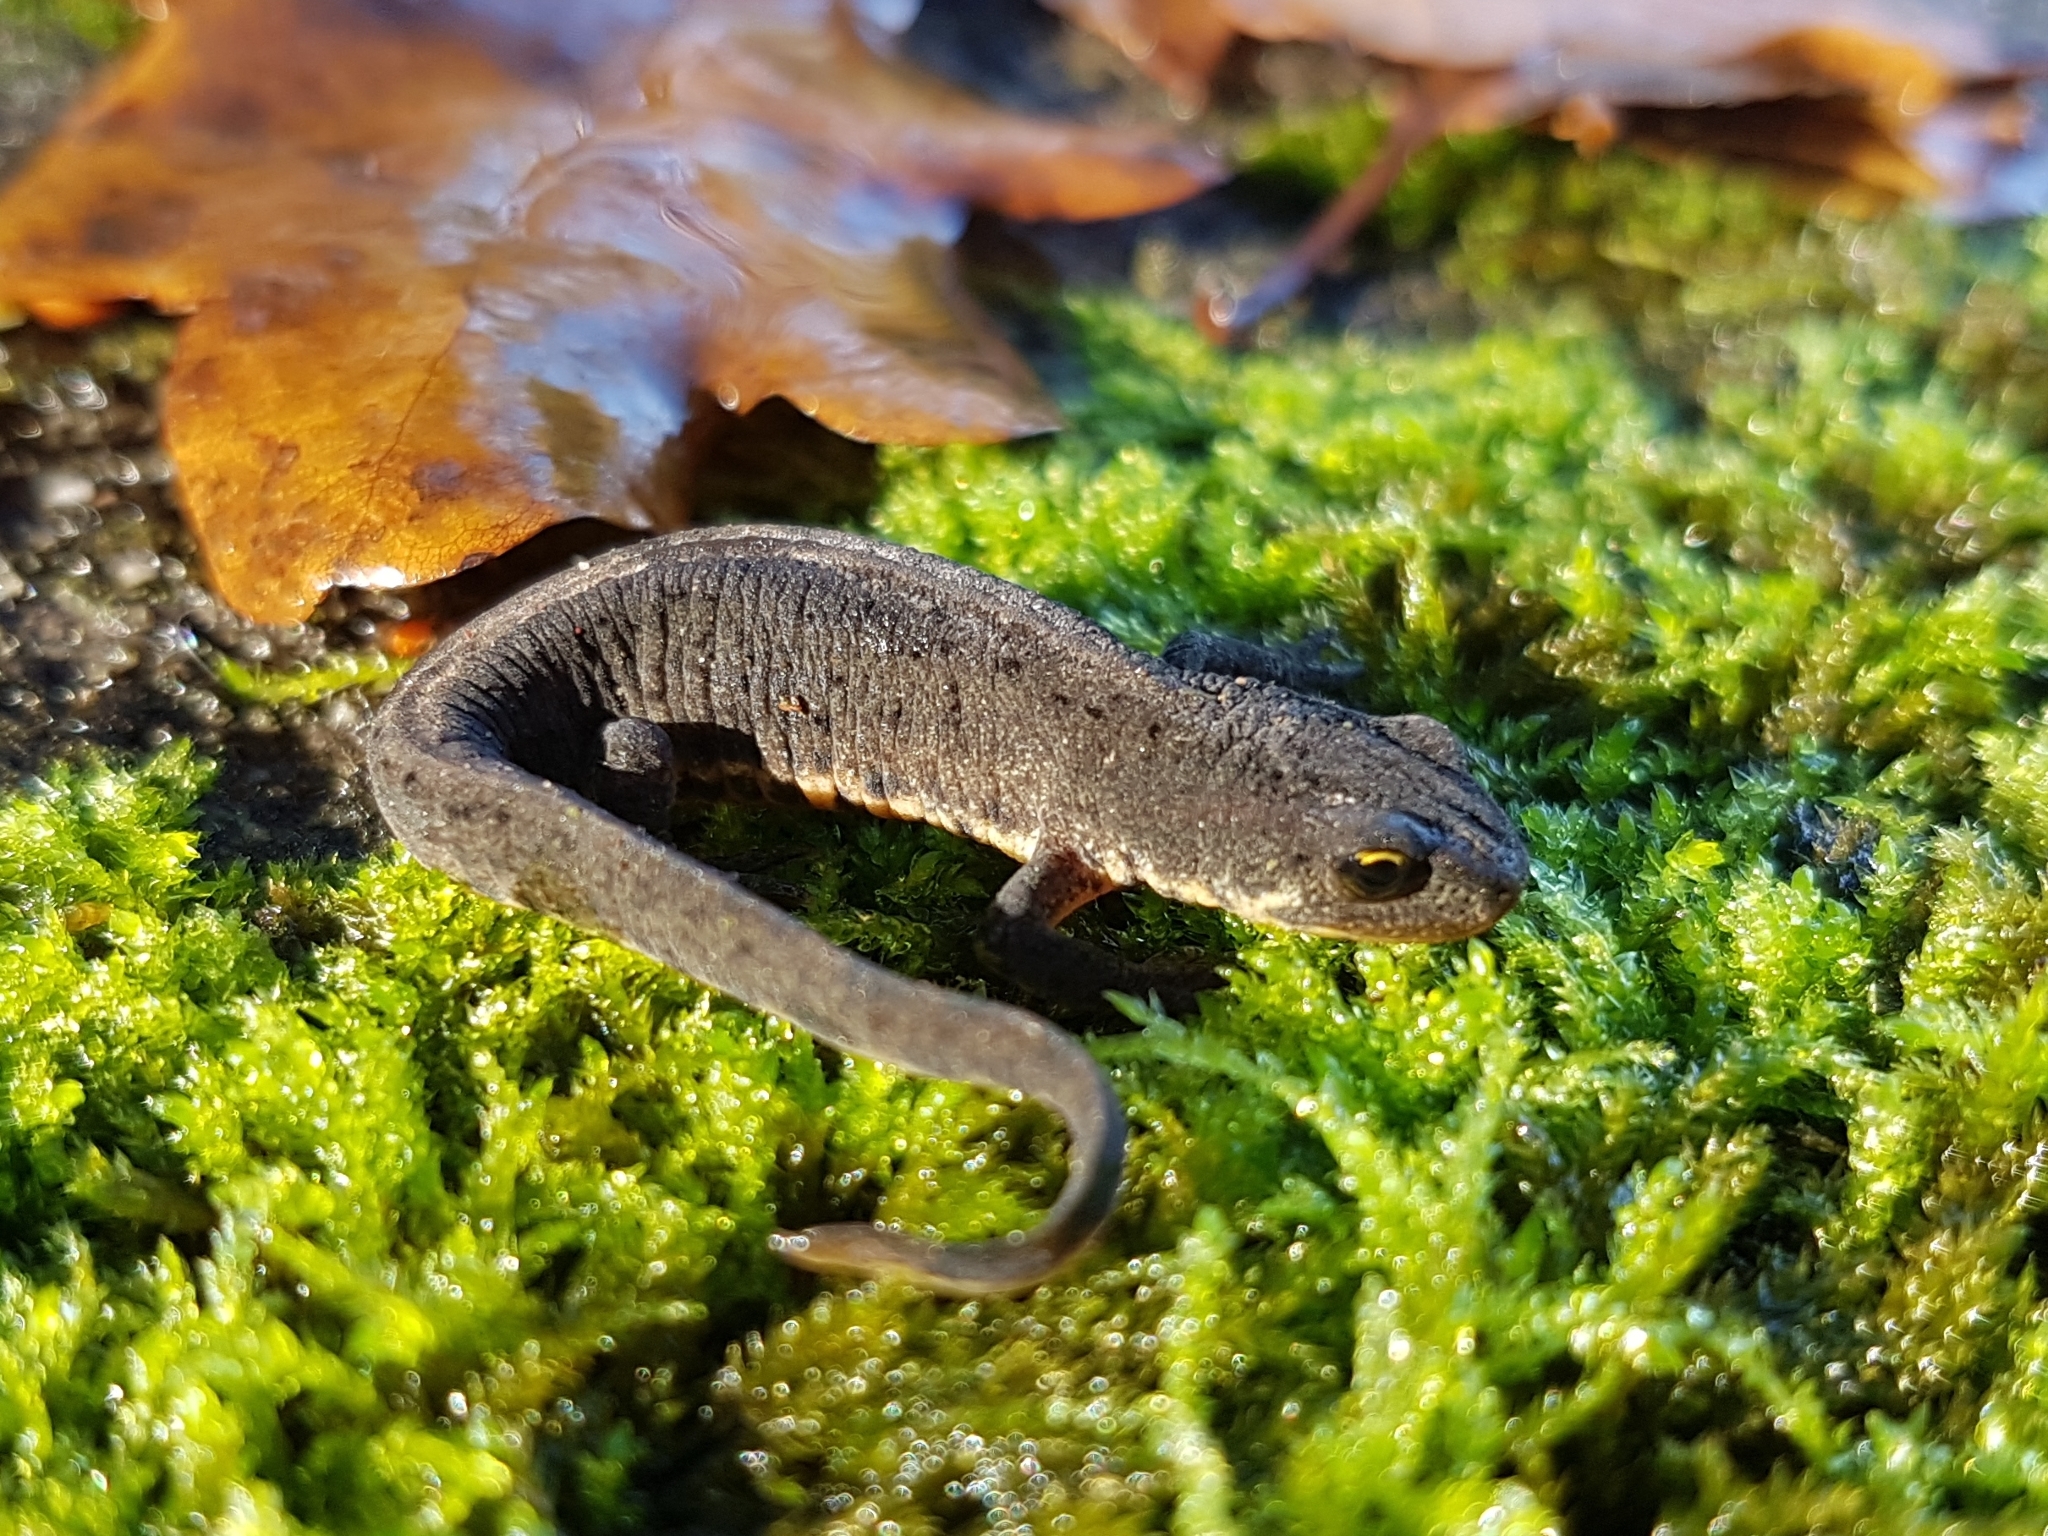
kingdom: Animalia
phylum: Chordata
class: Amphibia
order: Caudata
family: Salamandridae
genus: Lissotriton
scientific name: Lissotriton boscai
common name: Bosca's newt
